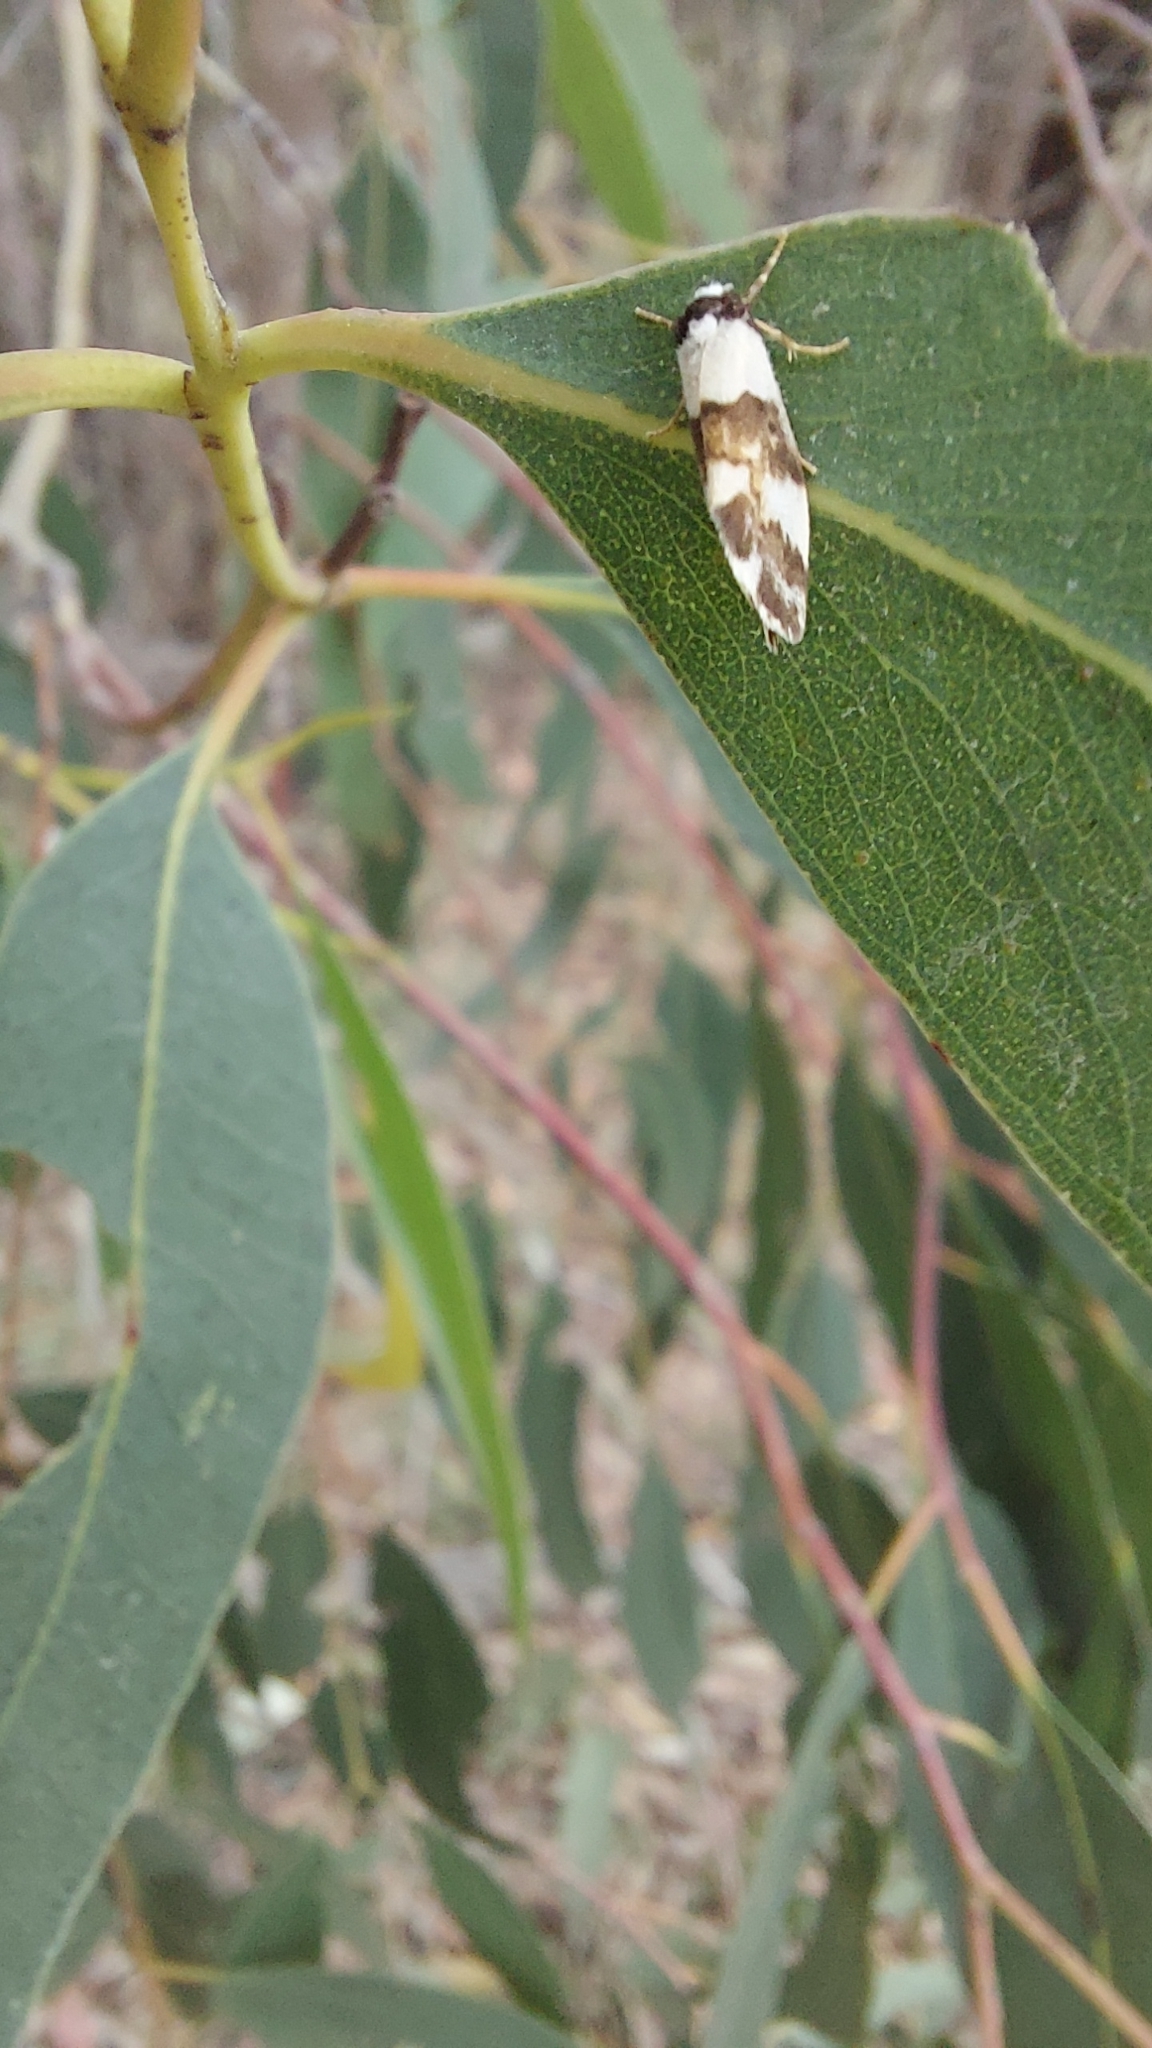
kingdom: Animalia
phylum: Arthropoda
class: Insecta
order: Lepidoptera
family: Erebidae
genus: Philenora
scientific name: Philenora aspectalella
